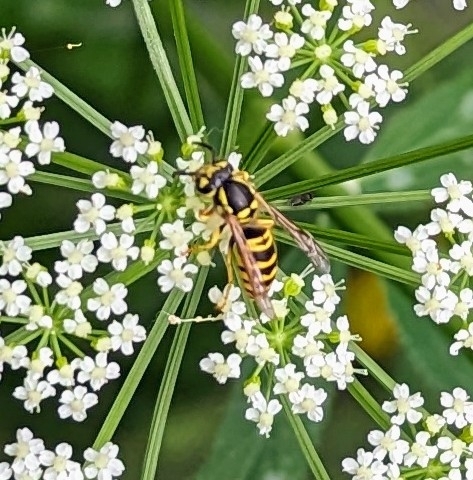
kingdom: Animalia
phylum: Arthropoda
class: Insecta
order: Hymenoptera
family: Vespidae
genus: Vespula
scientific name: Vespula maculifrons
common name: Eastern yellowjacket
